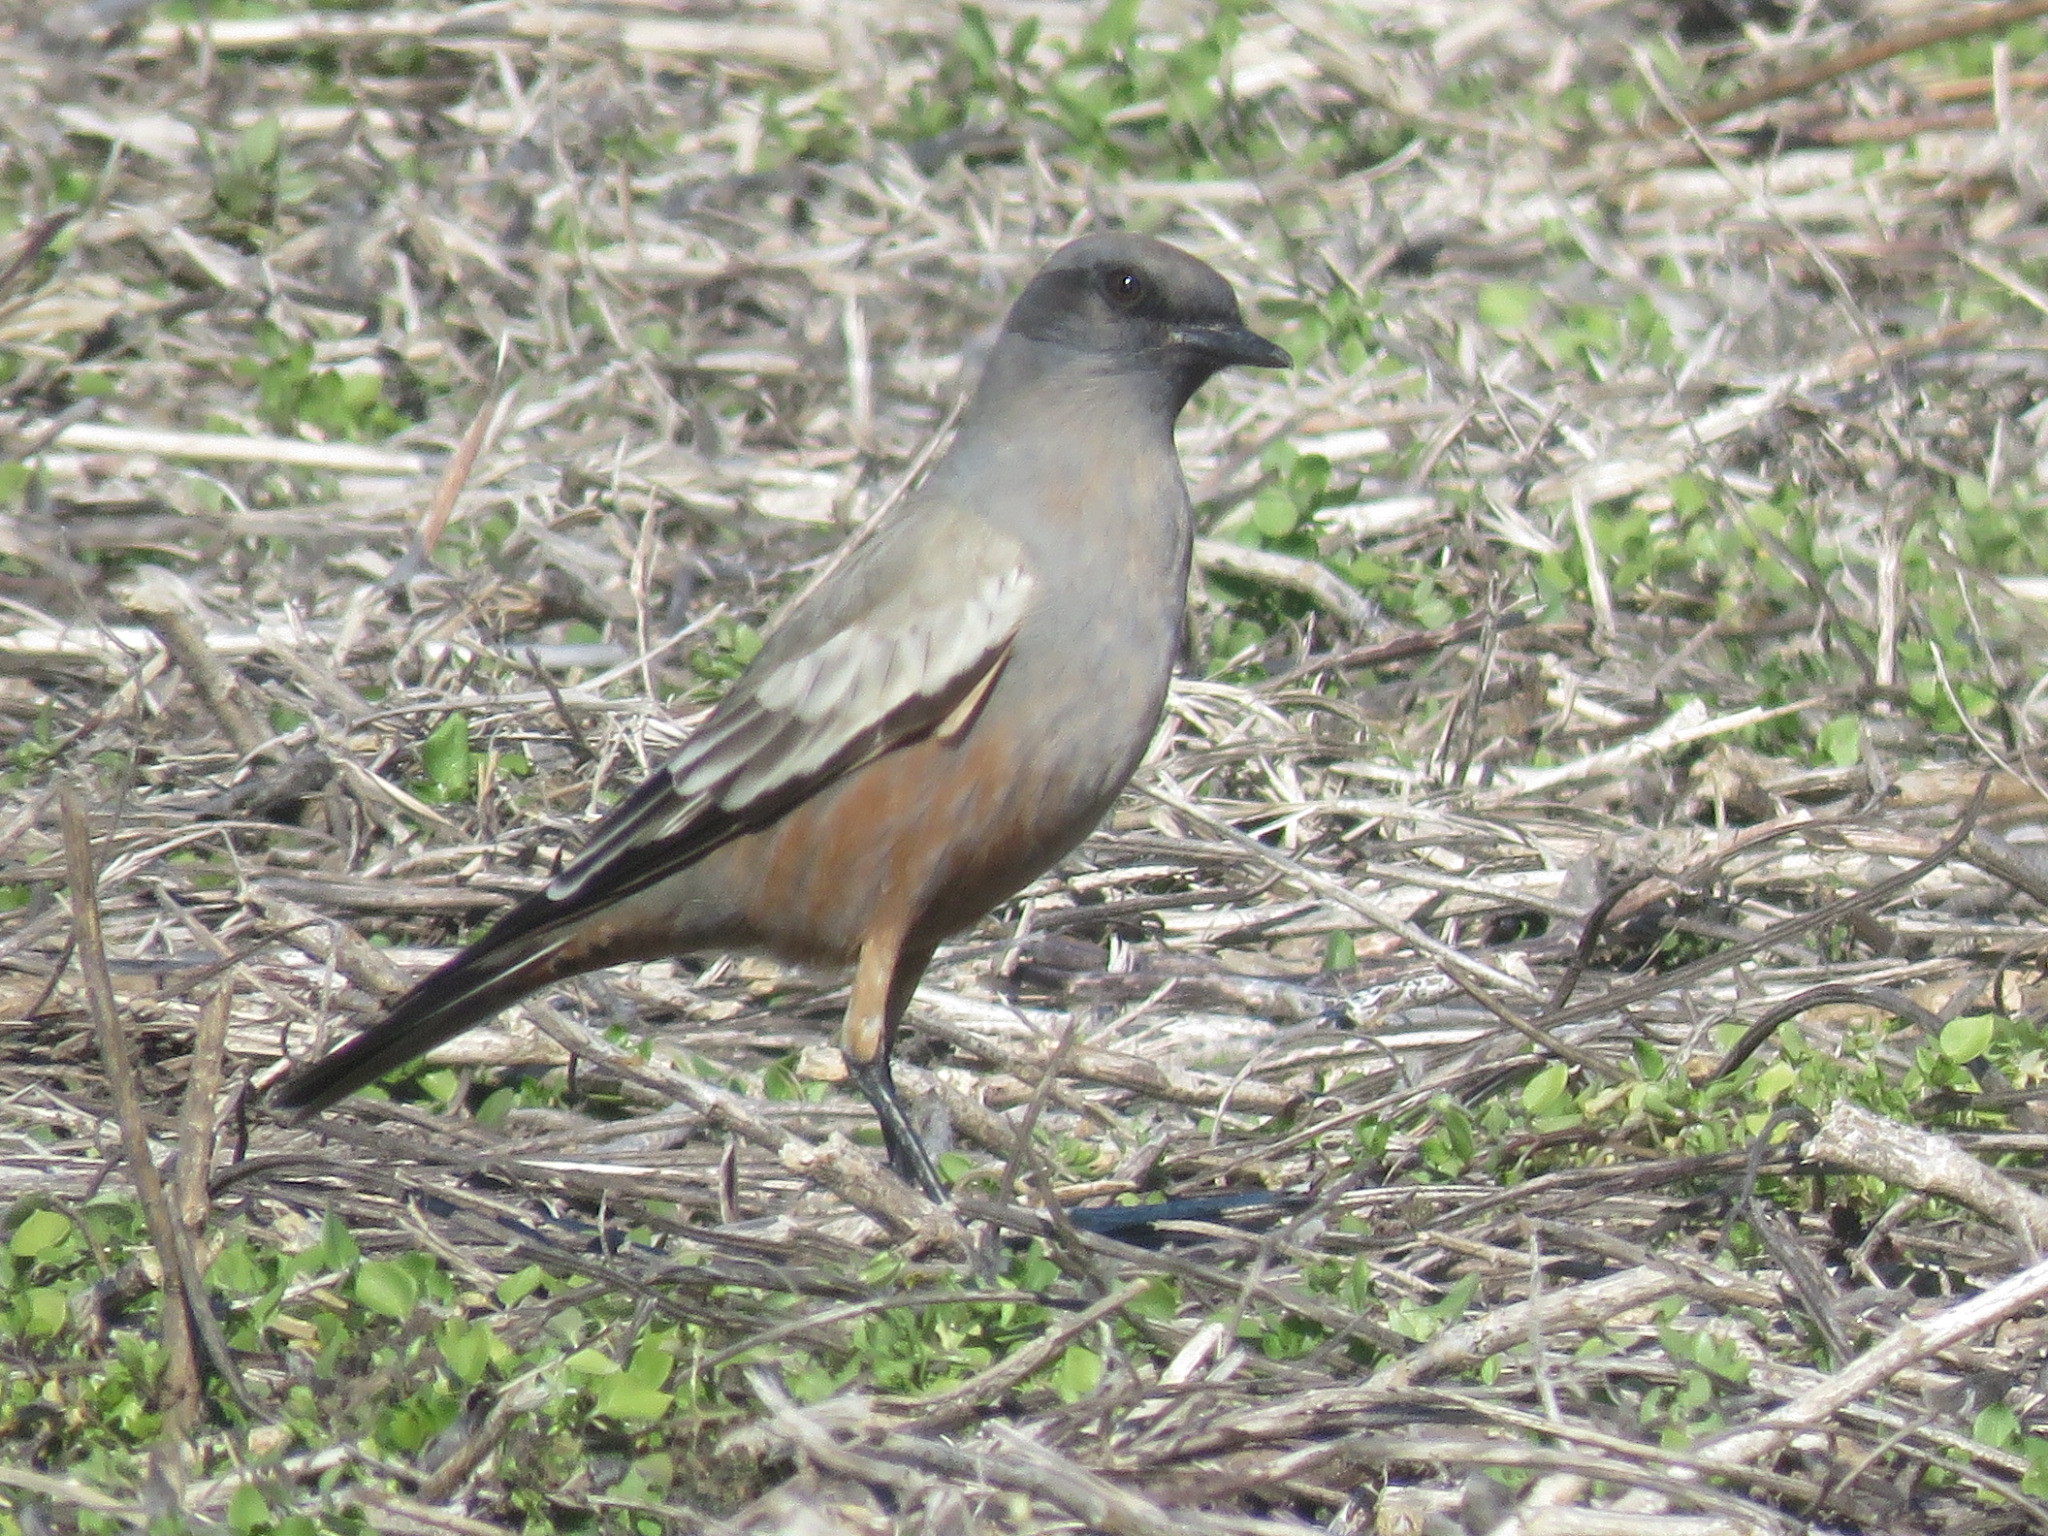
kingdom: Animalia
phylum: Chordata
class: Aves
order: Passeriformes
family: Tyrannidae
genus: Neoxolmis
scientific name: Neoxolmis rufiventris
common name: Chocolate-vented tyrant
